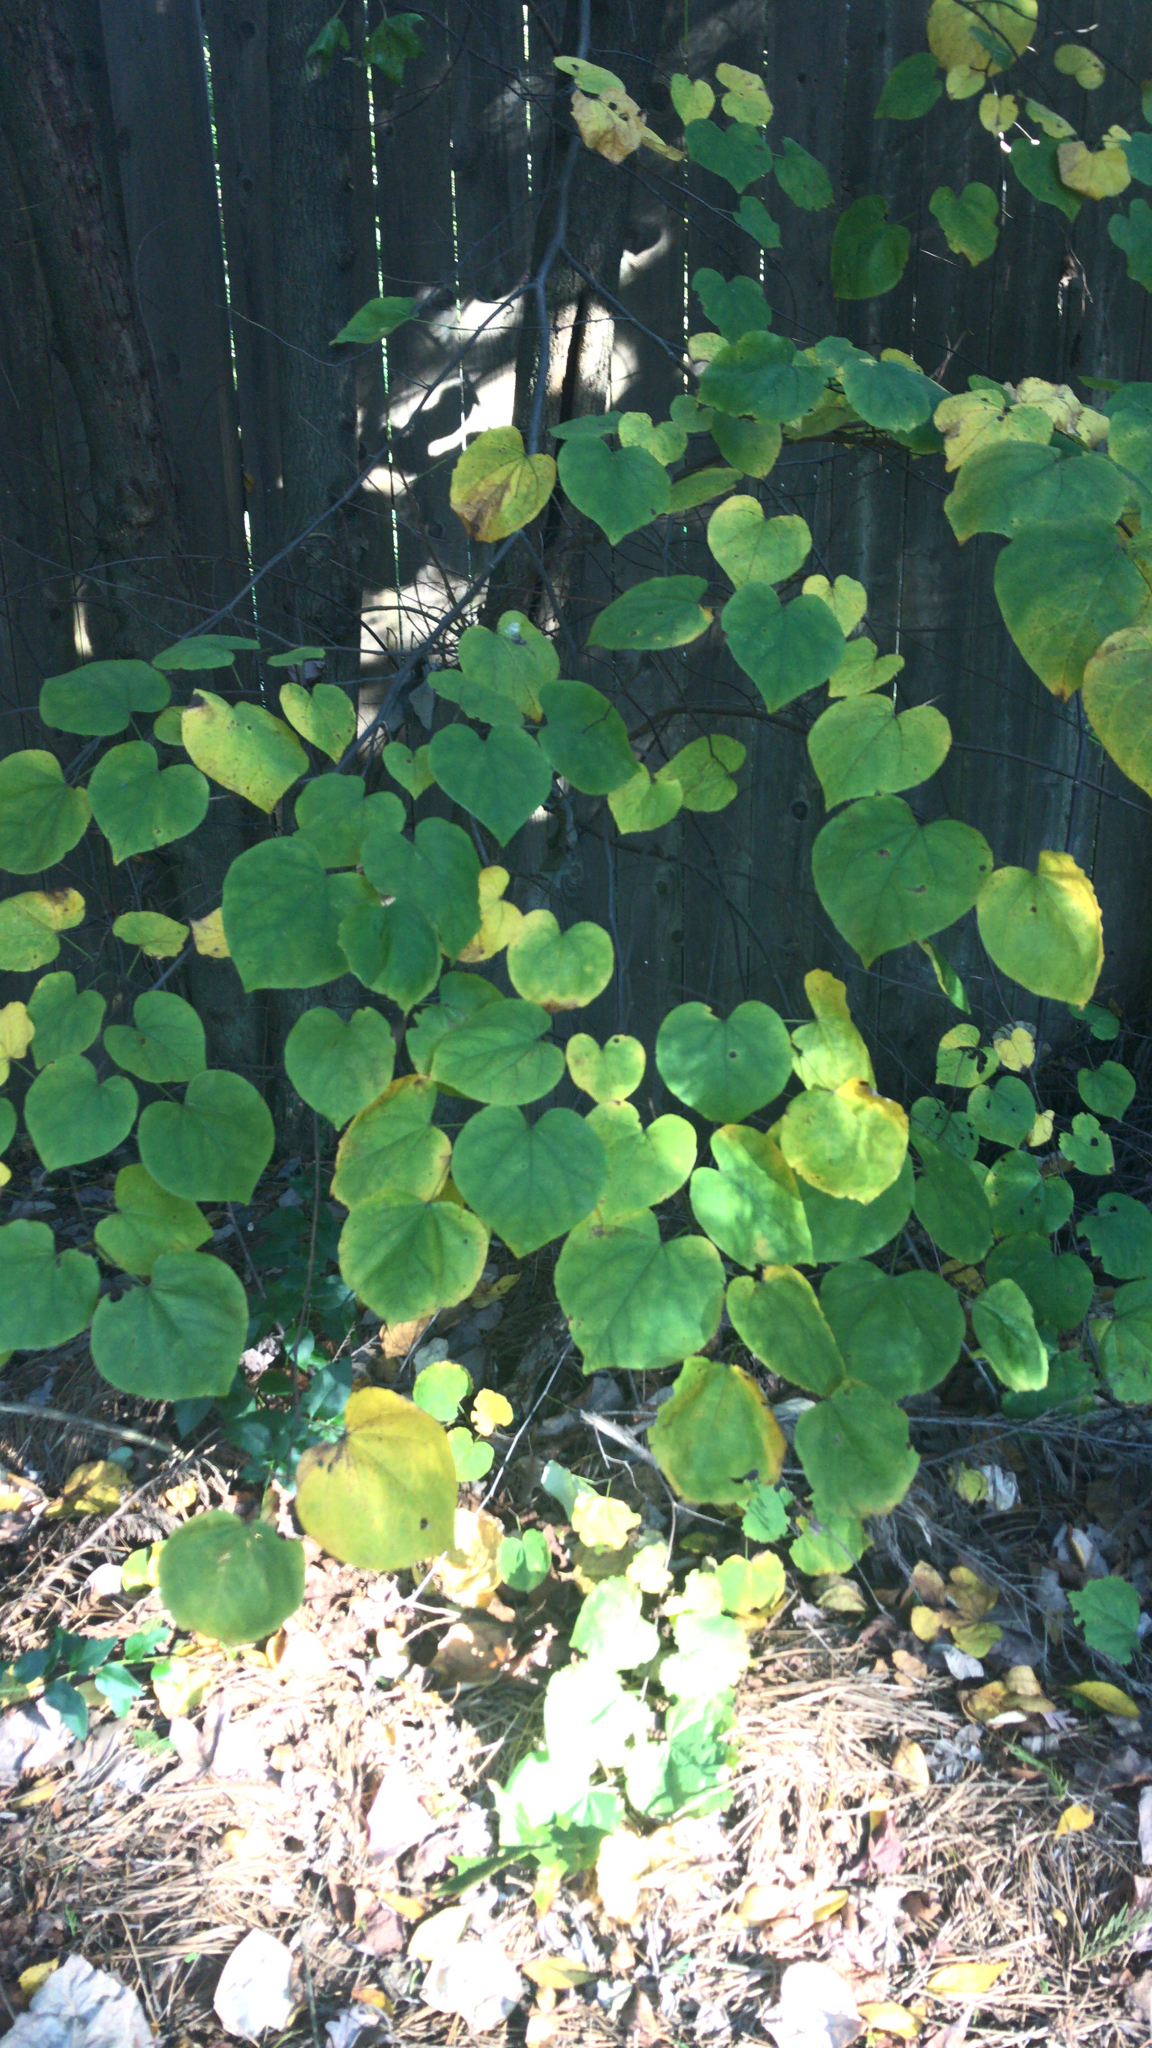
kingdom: Plantae
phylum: Tracheophyta
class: Magnoliopsida
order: Fabales
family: Fabaceae
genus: Cercis
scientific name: Cercis canadensis
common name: Eastern redbud
